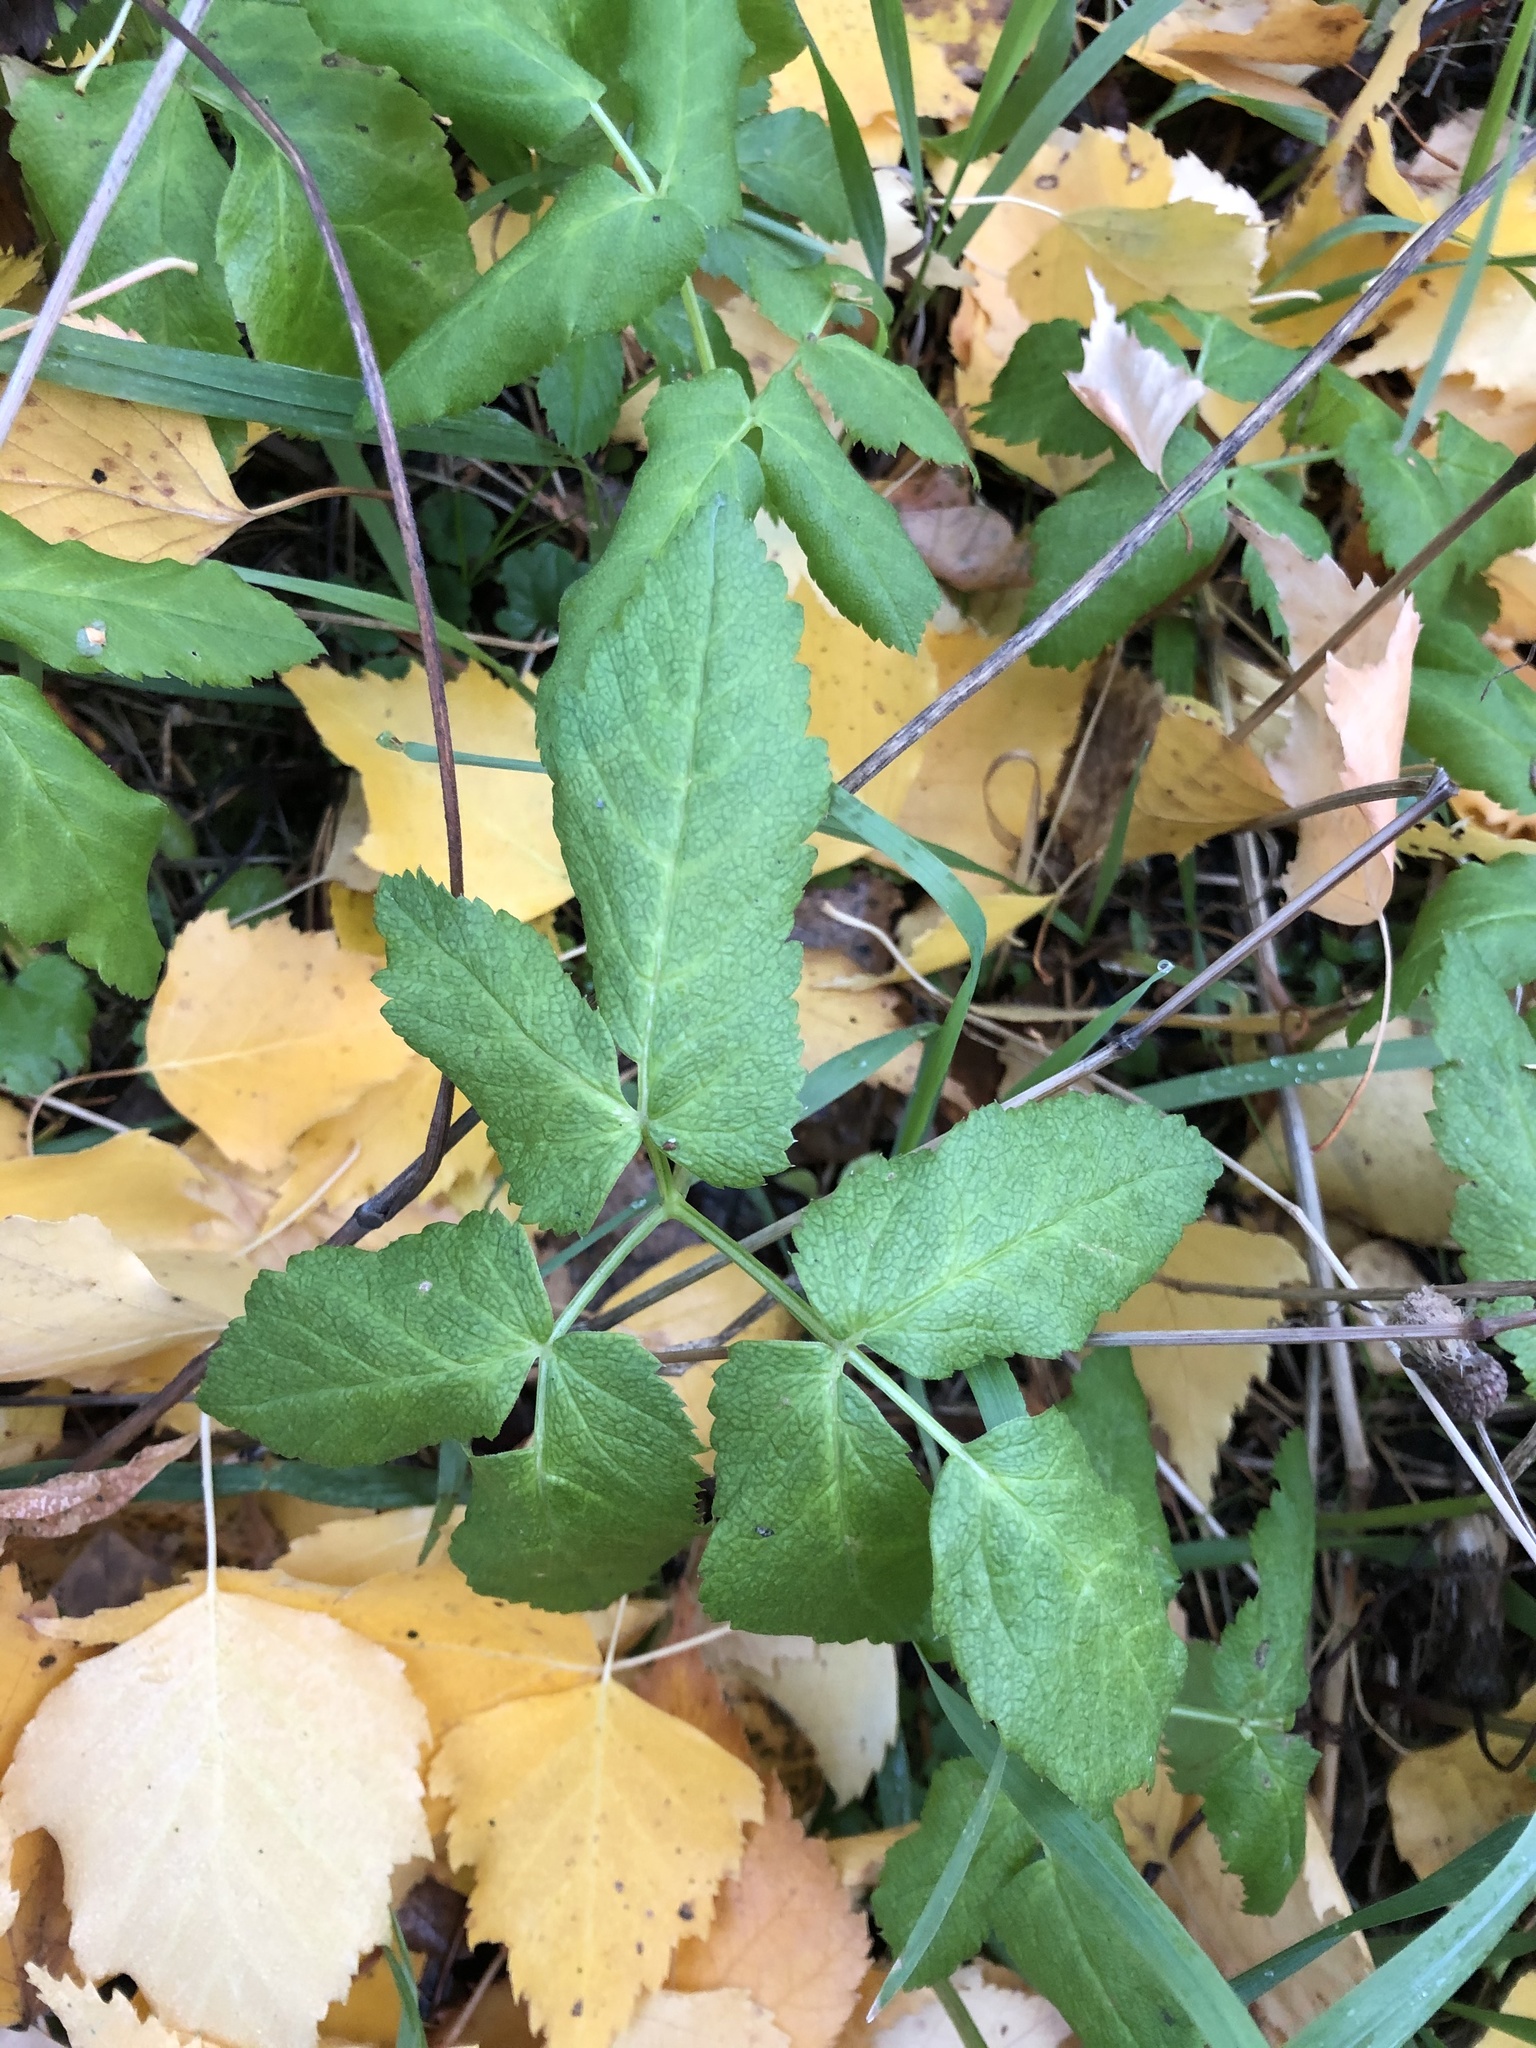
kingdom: Plantae
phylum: Tracheophyta
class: Magnoliopsida
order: Apiales
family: Apiaceae
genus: Aegopodium
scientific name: Aegopodium podagraria
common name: Ground-elder
